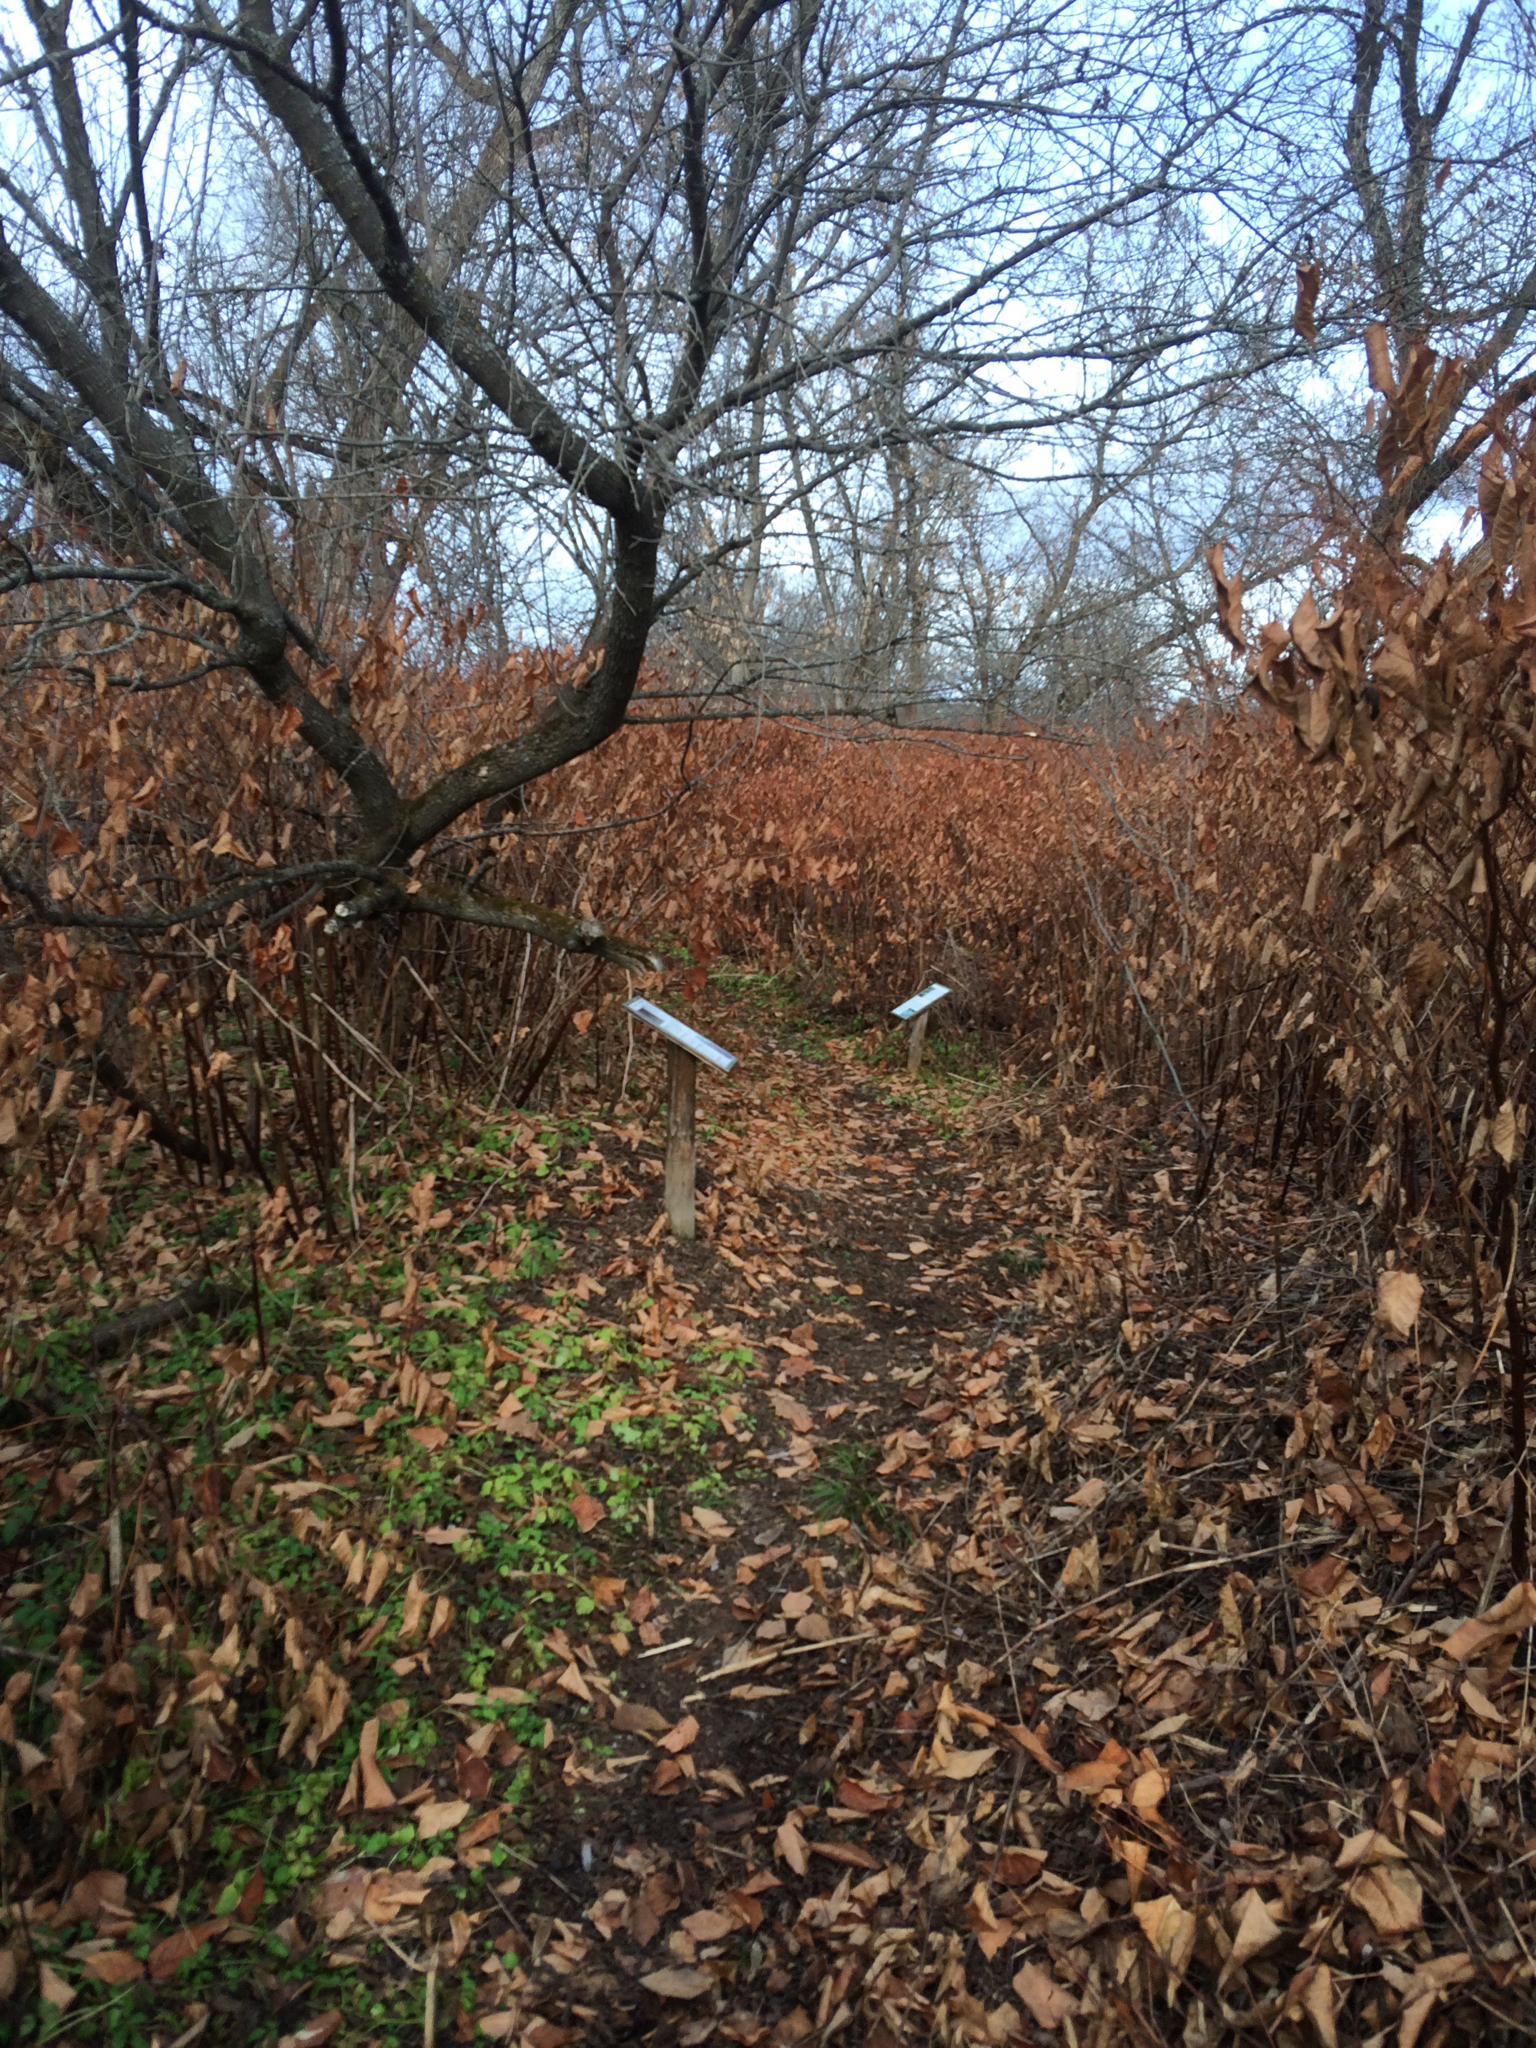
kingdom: Plantae
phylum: Tracheophyta
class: Magnoliopsida
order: Caryophyllales
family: Polygonaceae
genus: Reynoutria
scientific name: Reynoutria japonica
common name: Japanese knotweed
